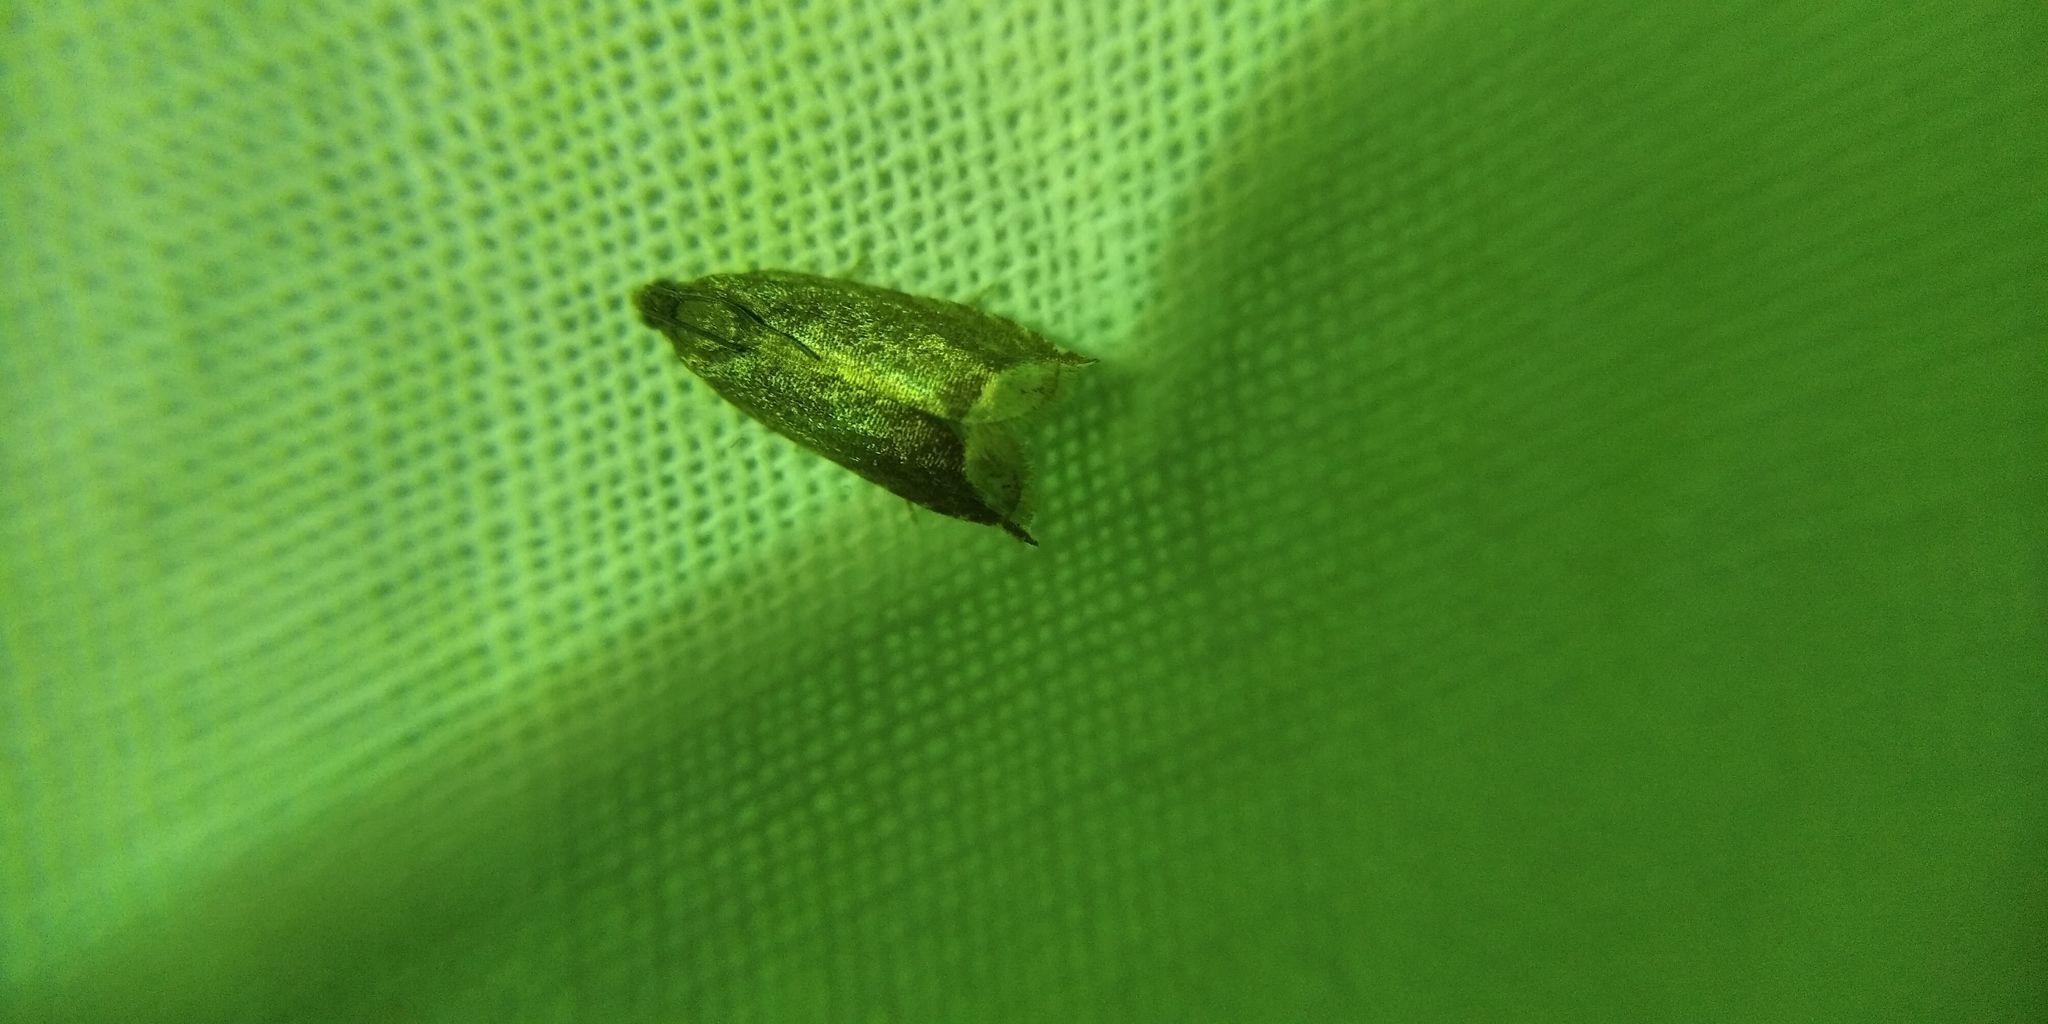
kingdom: Animalia
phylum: Arthropoda
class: Insecta
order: Lepidoptera
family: Tortricidae
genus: Ancylis
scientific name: Ancylis selenana
